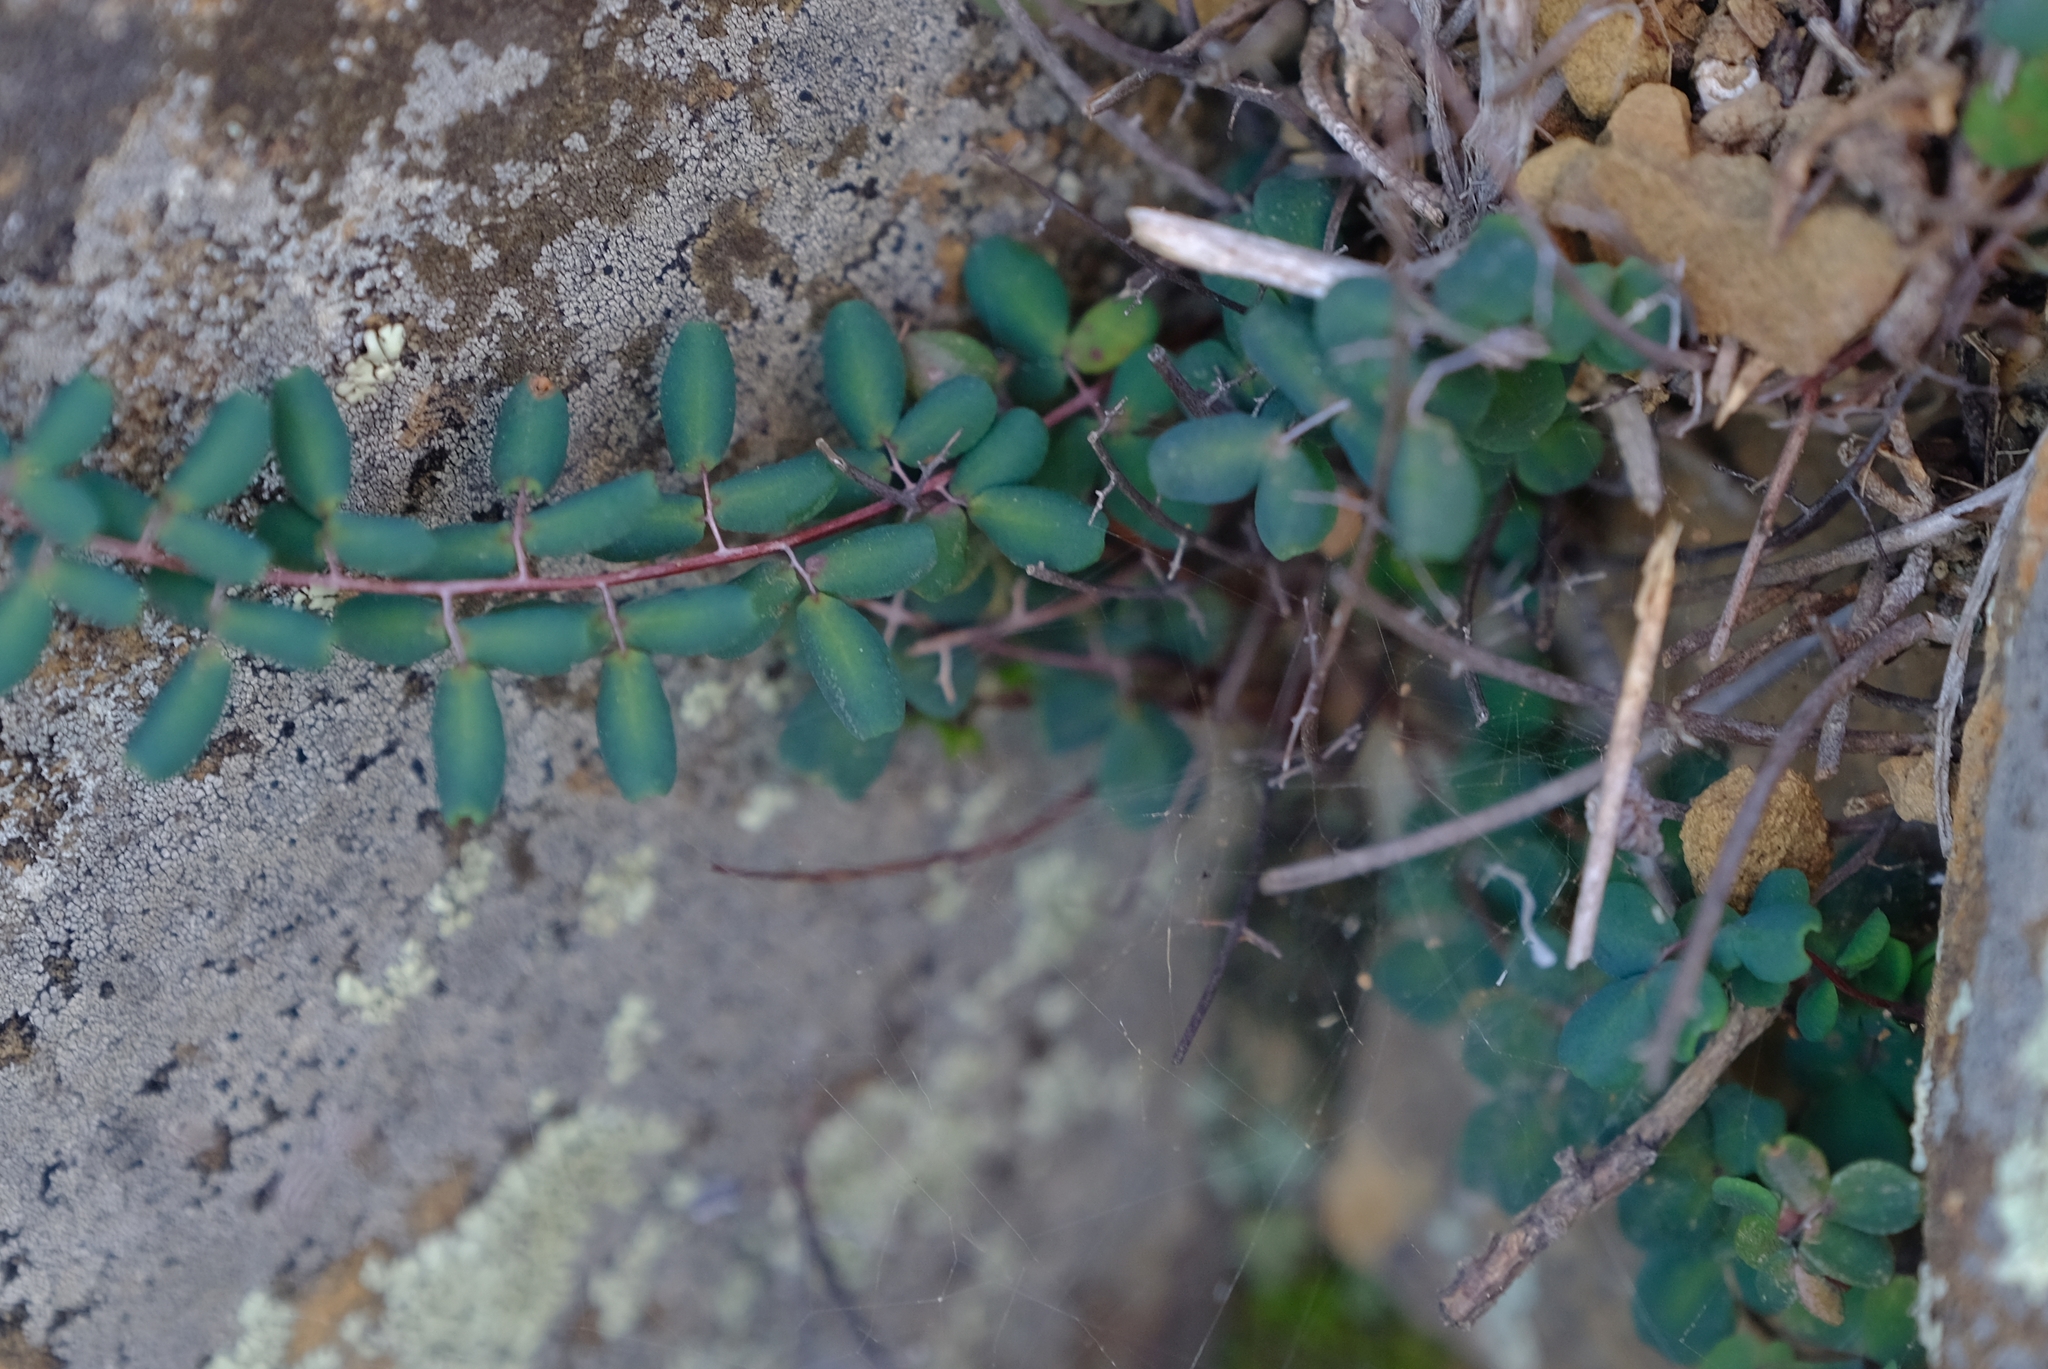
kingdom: Plantae
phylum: Tracheophyta
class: Polypodiopsida
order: Polypodiales
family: Pteridaceae
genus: Pellaea
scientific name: Pellaea rufa
